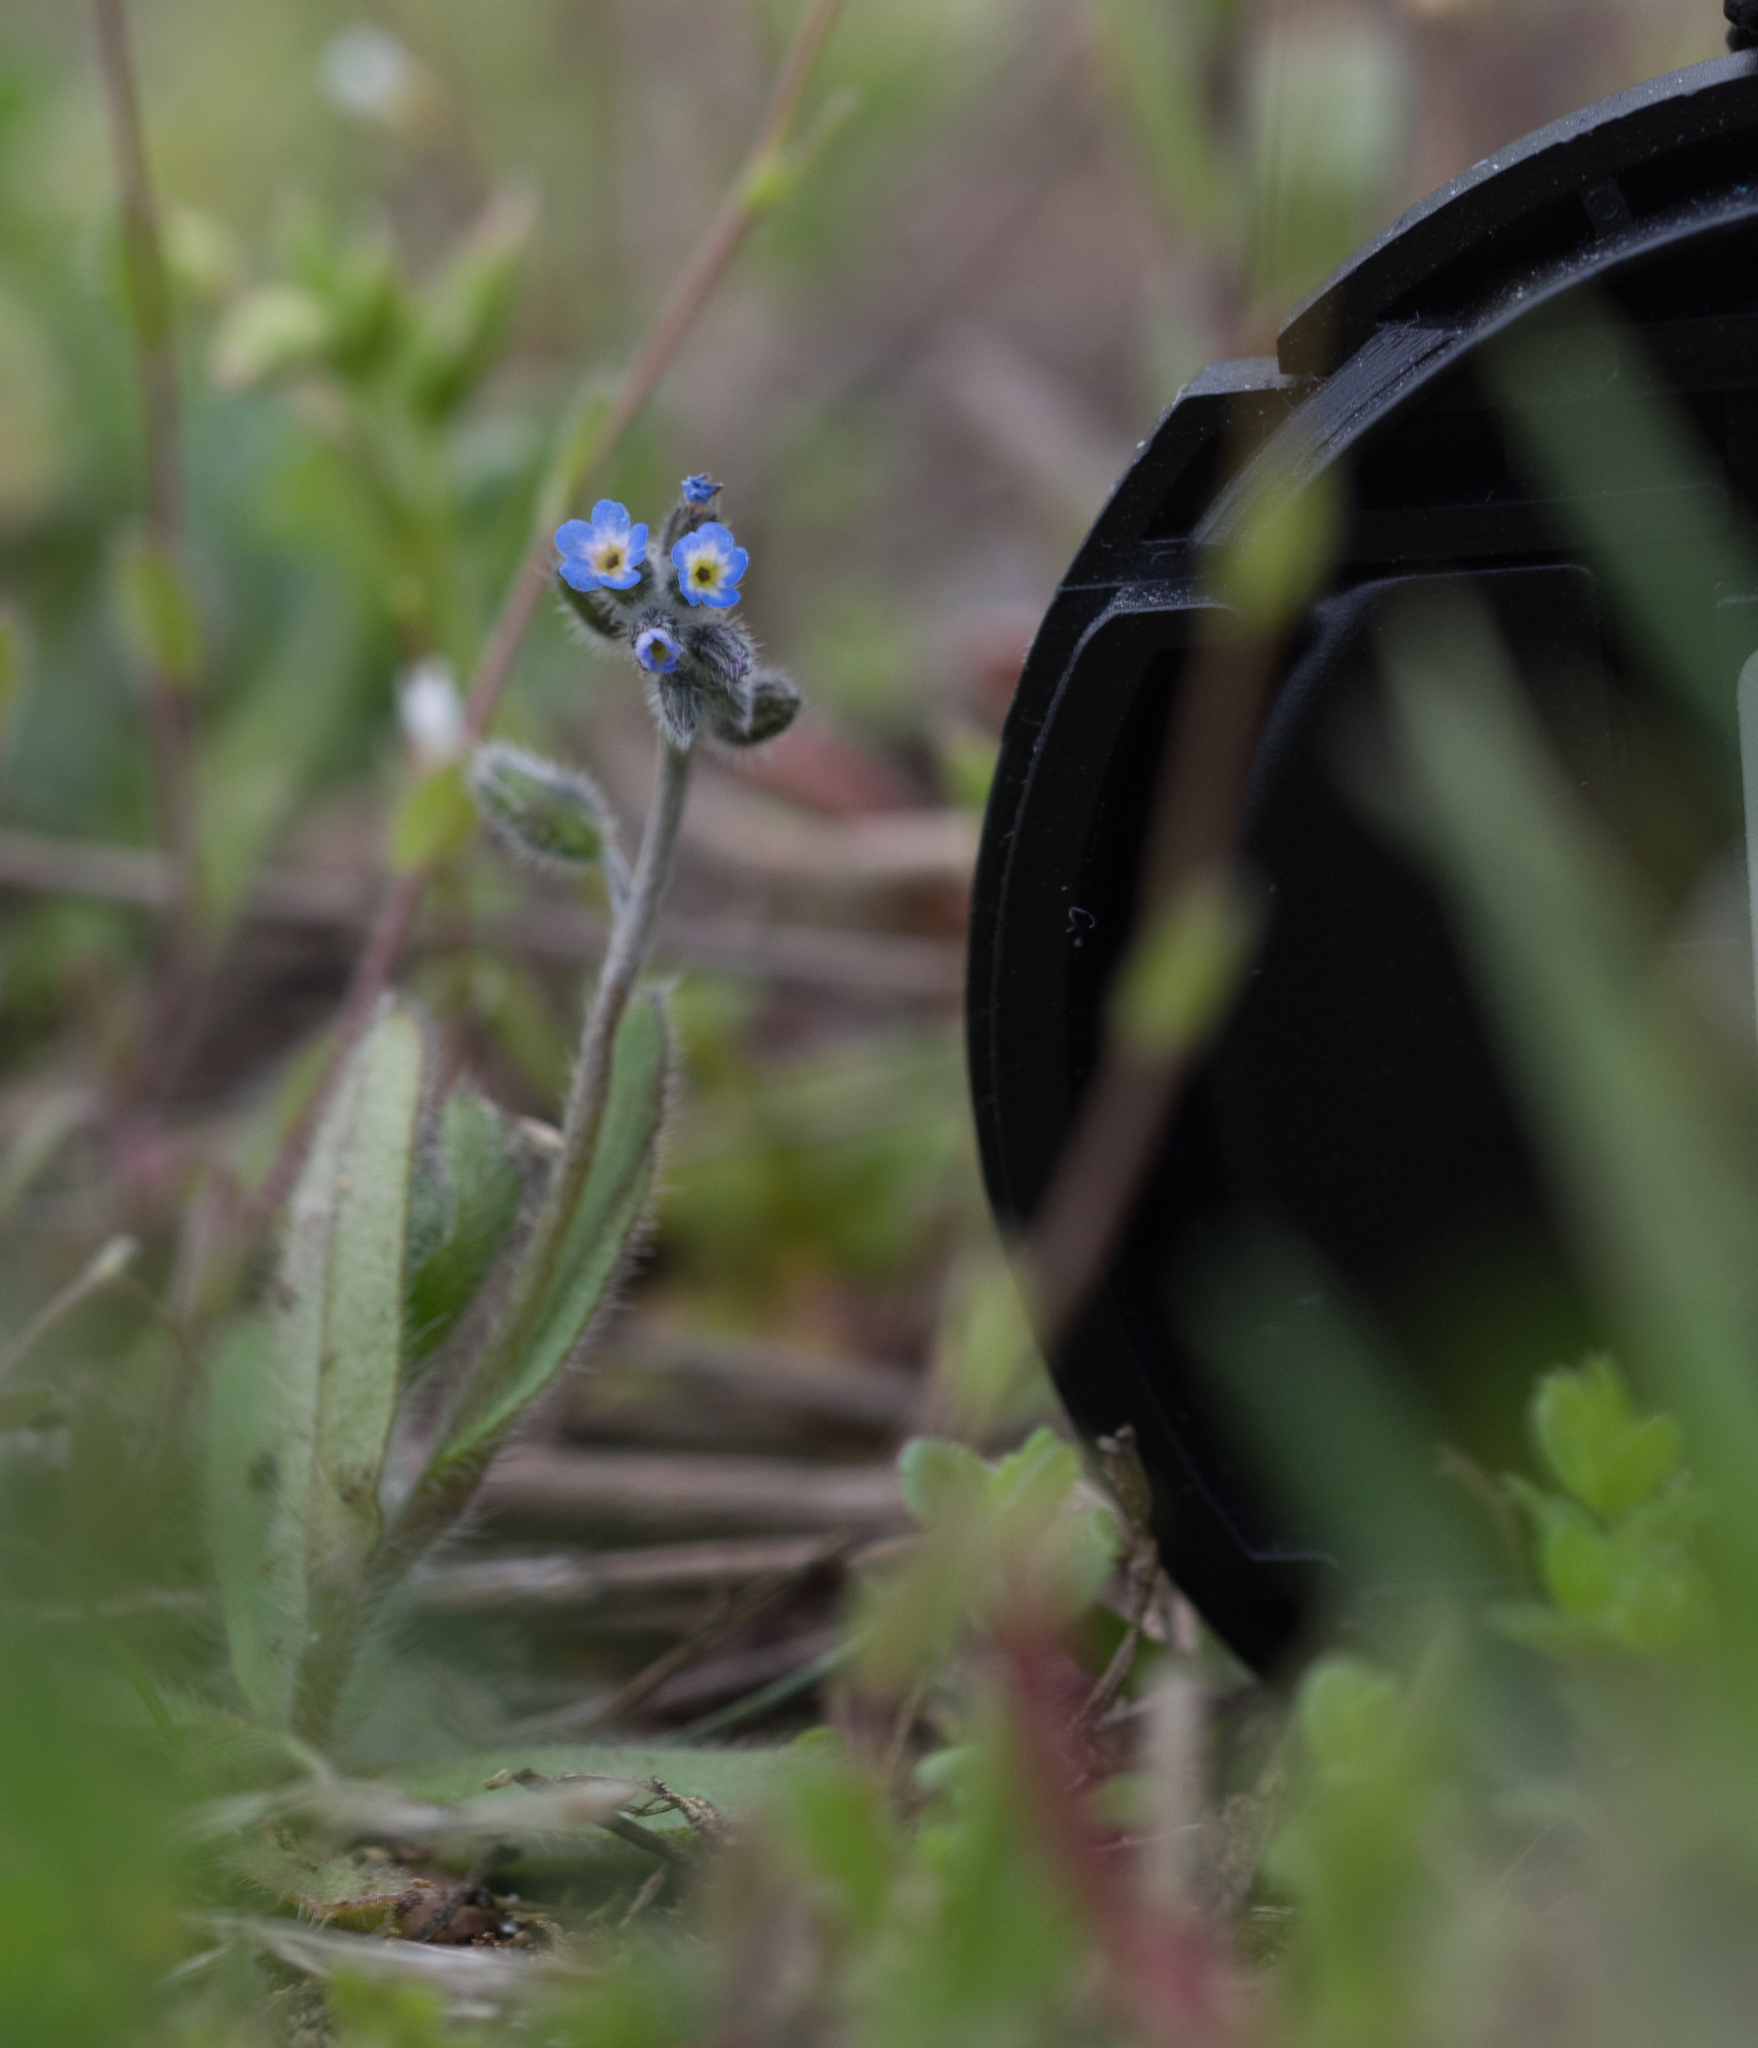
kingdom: Plantae
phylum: Tracheophyta
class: Magnoliopsida
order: Boraginales
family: Boraginaceae
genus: Myosotis
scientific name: Myosotis
